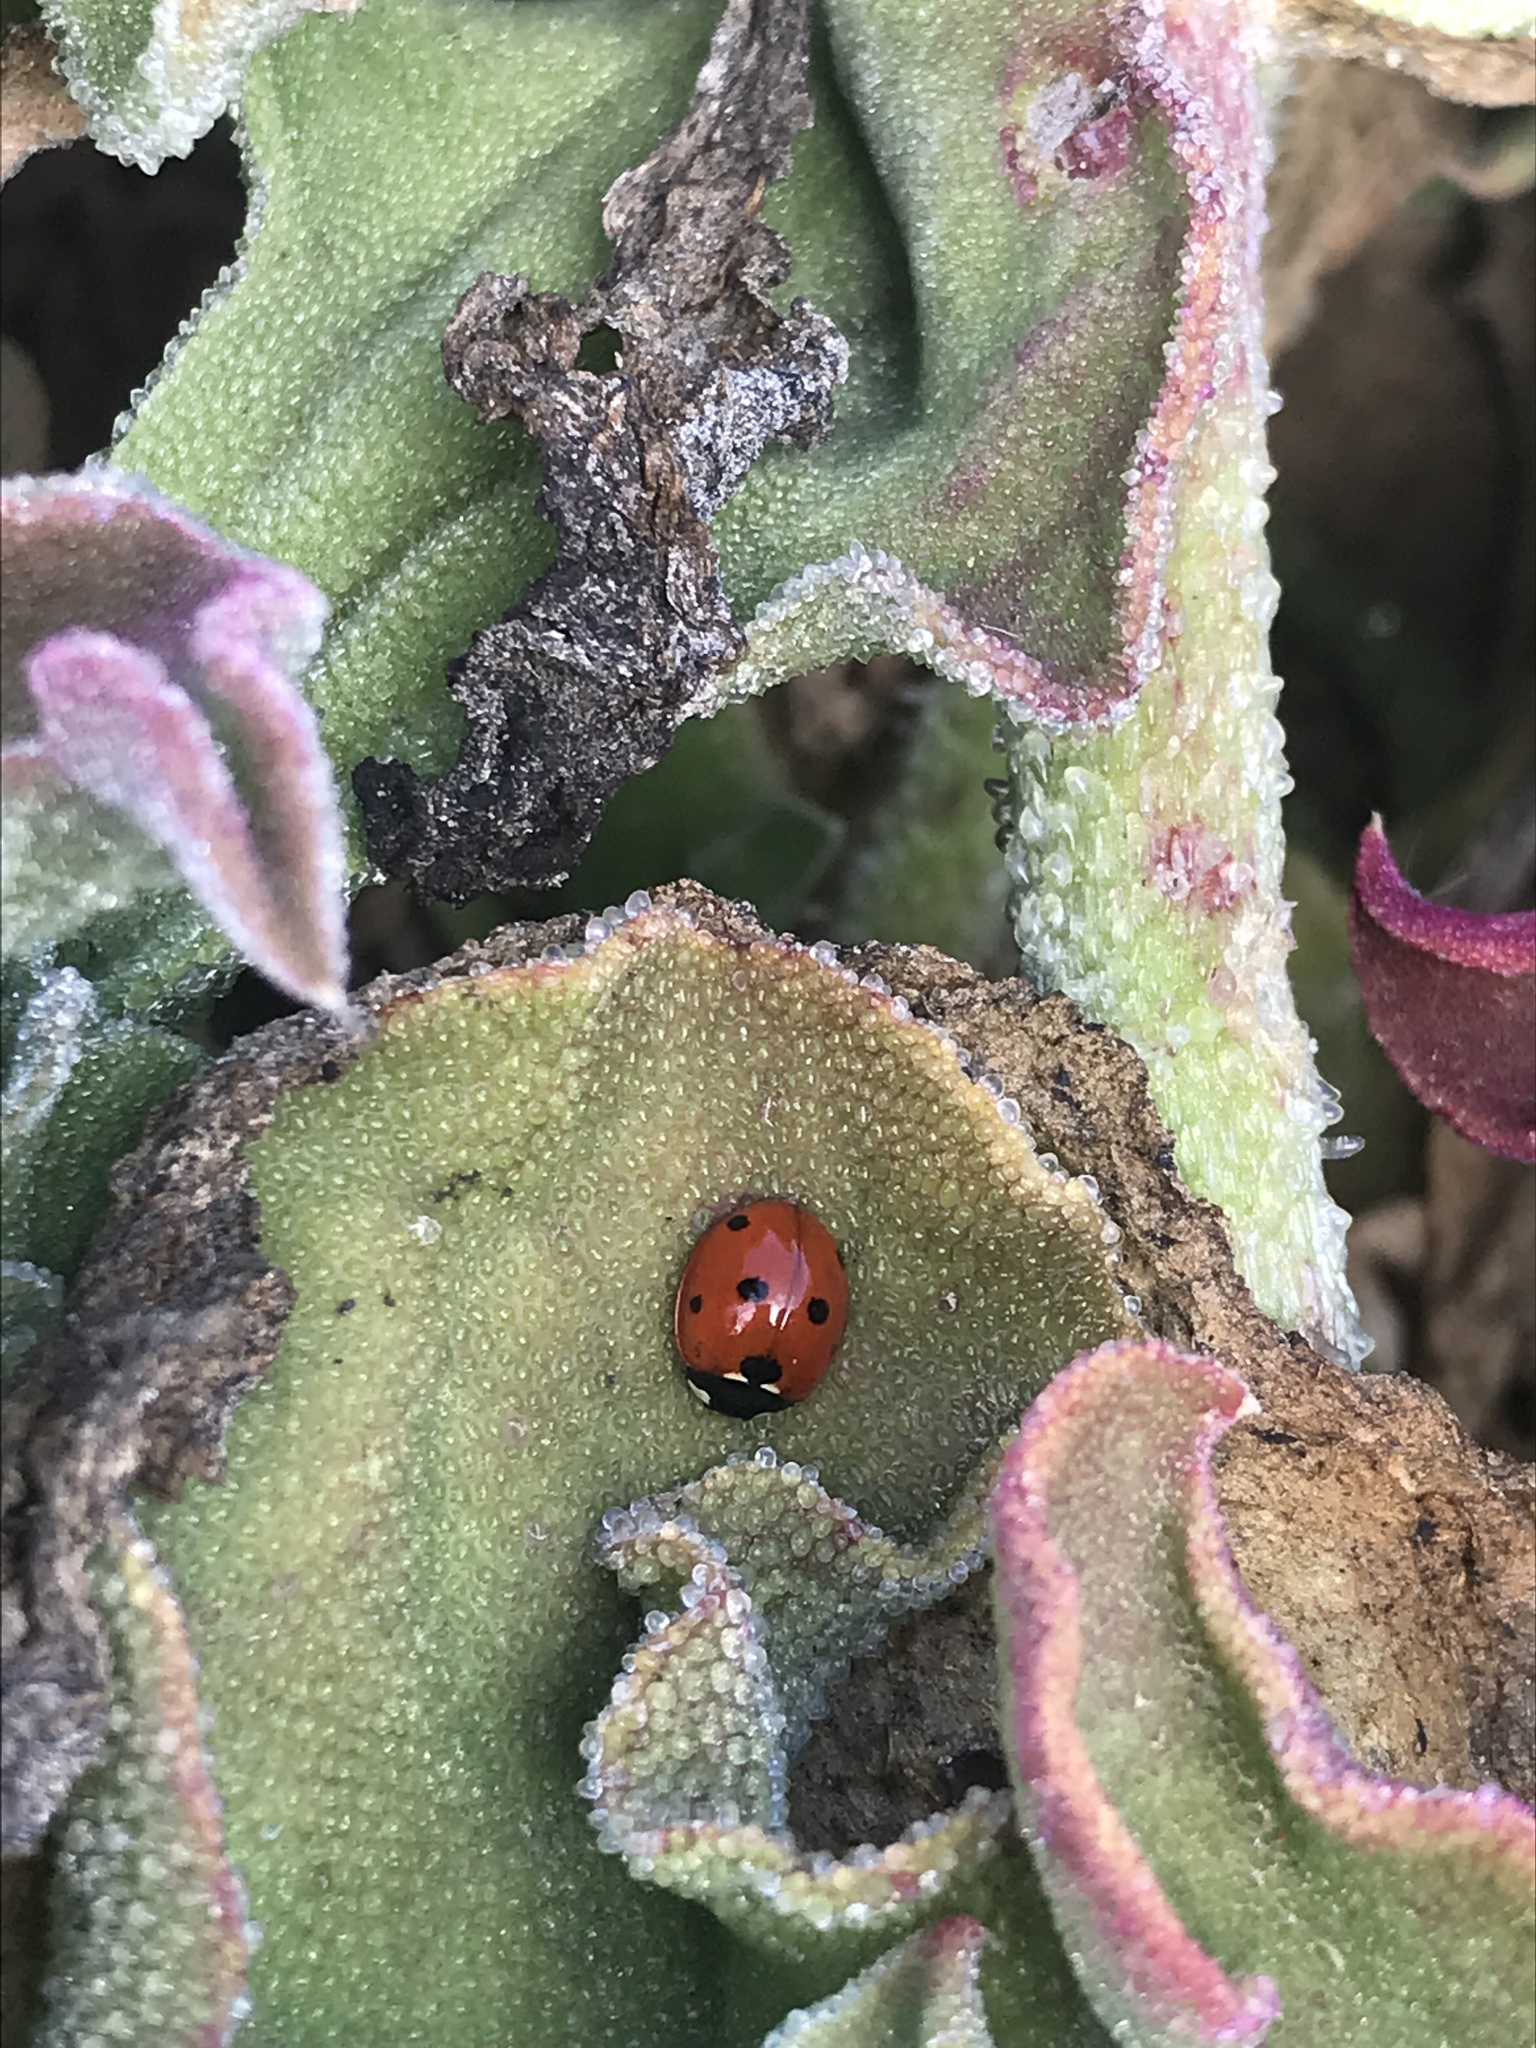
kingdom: Animalia
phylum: Arthropoda
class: Insecta
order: Coleoptera
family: Coccinellidae
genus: Coccinella
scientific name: Coccinella septempunctata
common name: Sevenspotted lady beetle
